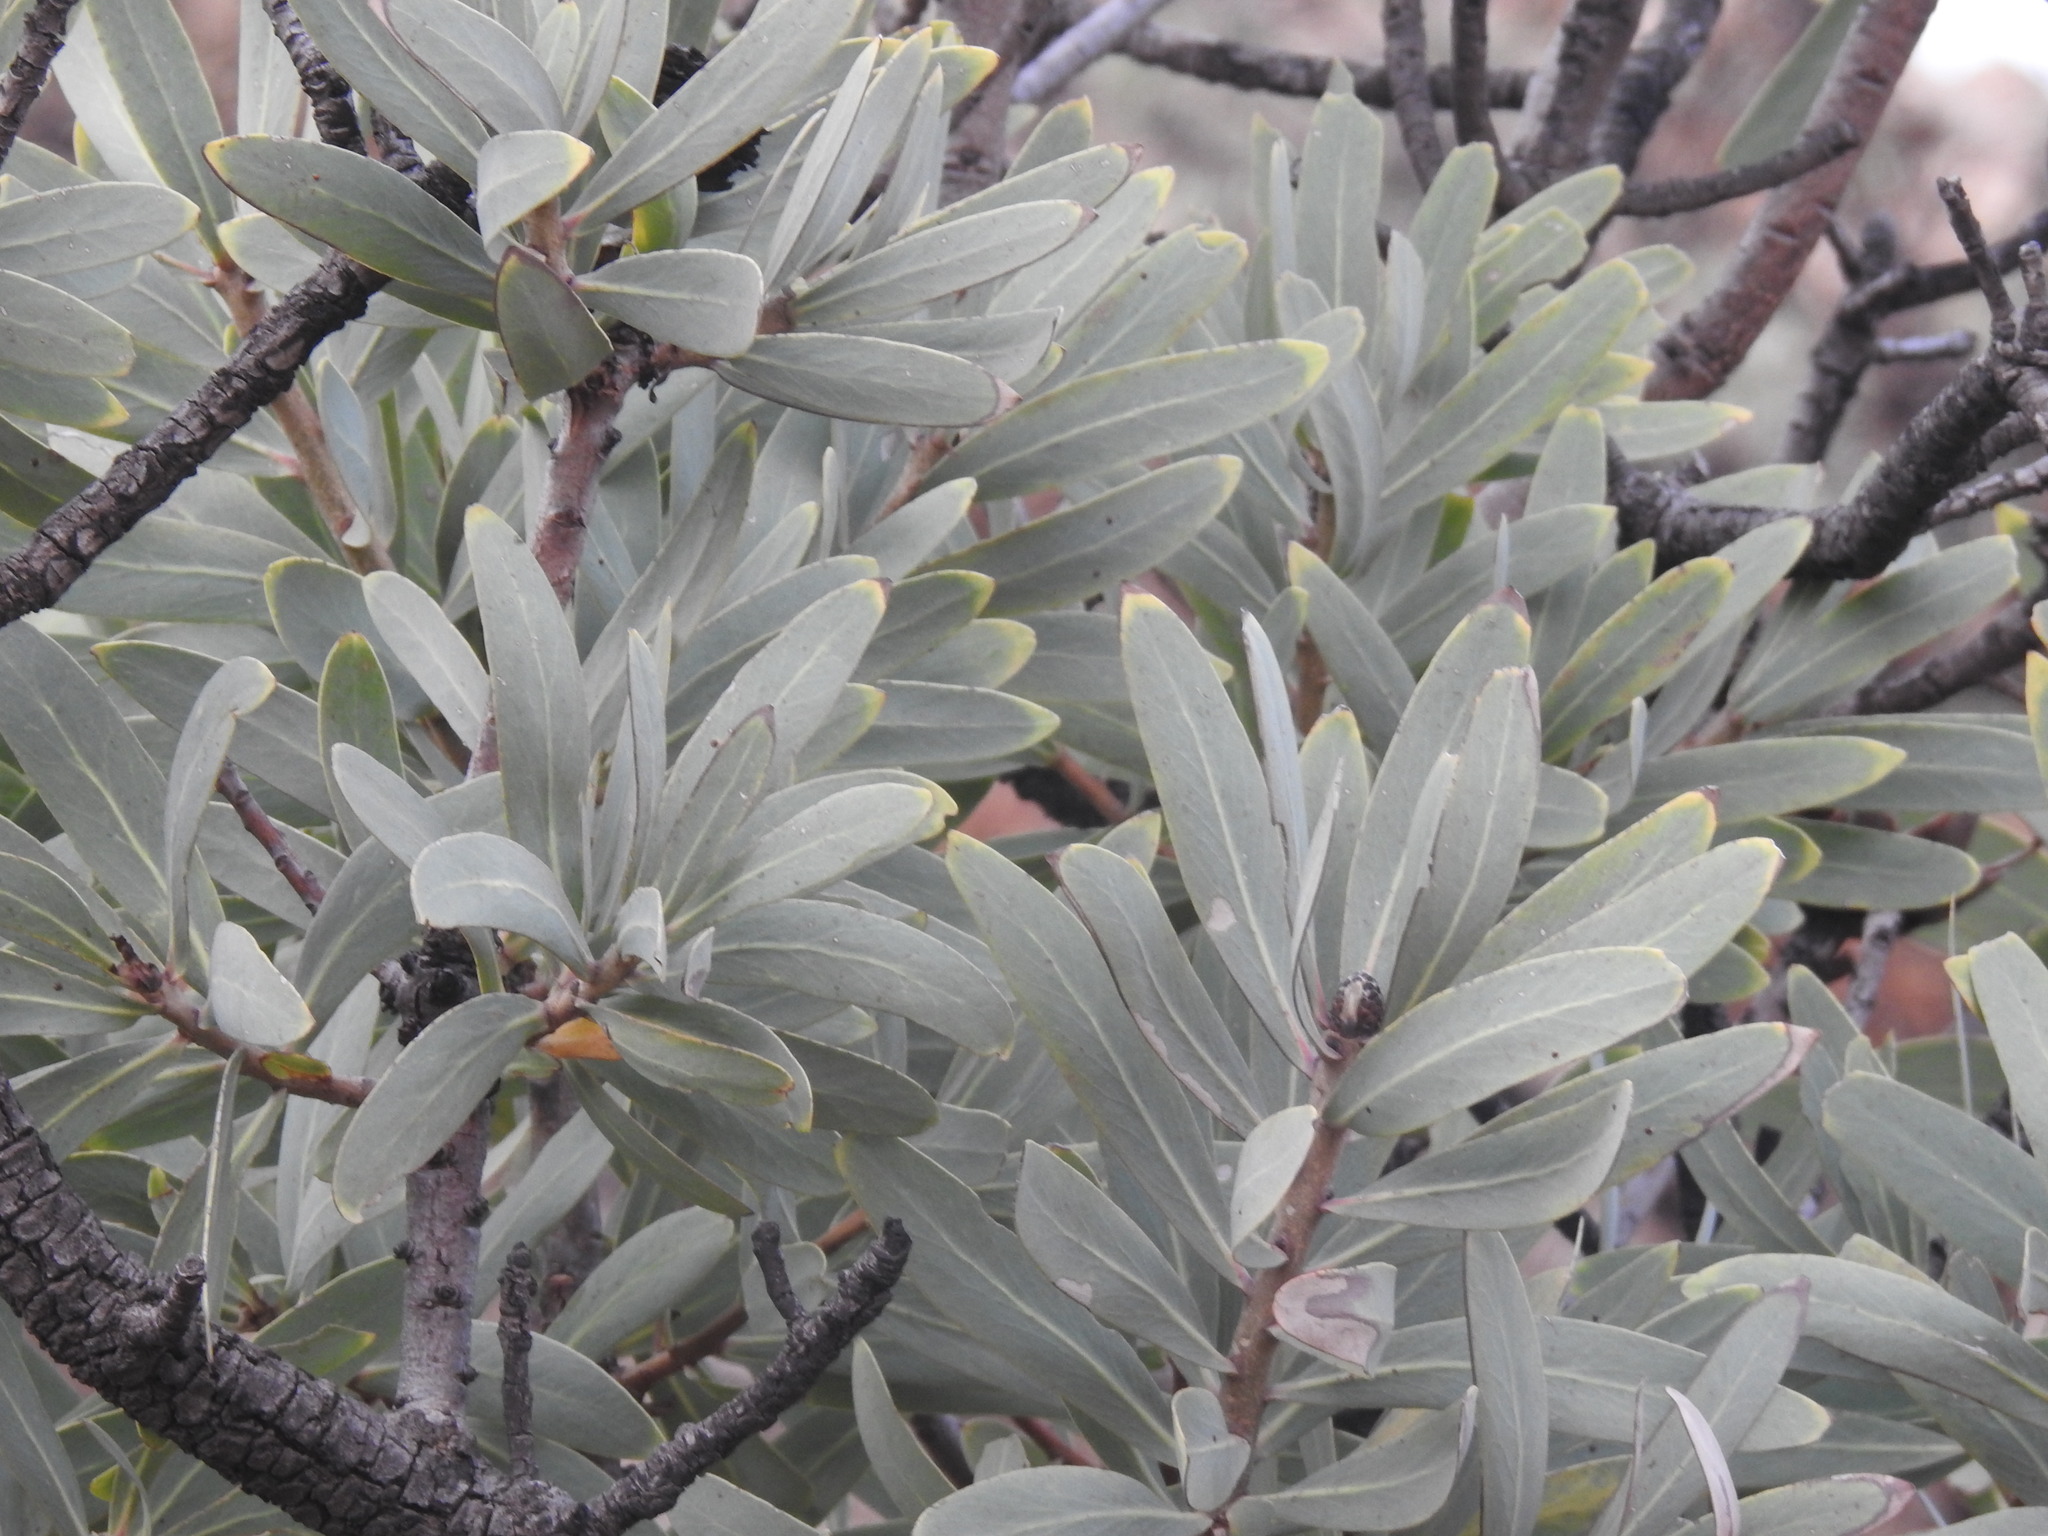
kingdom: Plantae
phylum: Tracheophyta
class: Magnoliopsida
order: Proteales
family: Proteaceae
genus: Protea
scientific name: Protea caffra
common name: Common sugarbush
